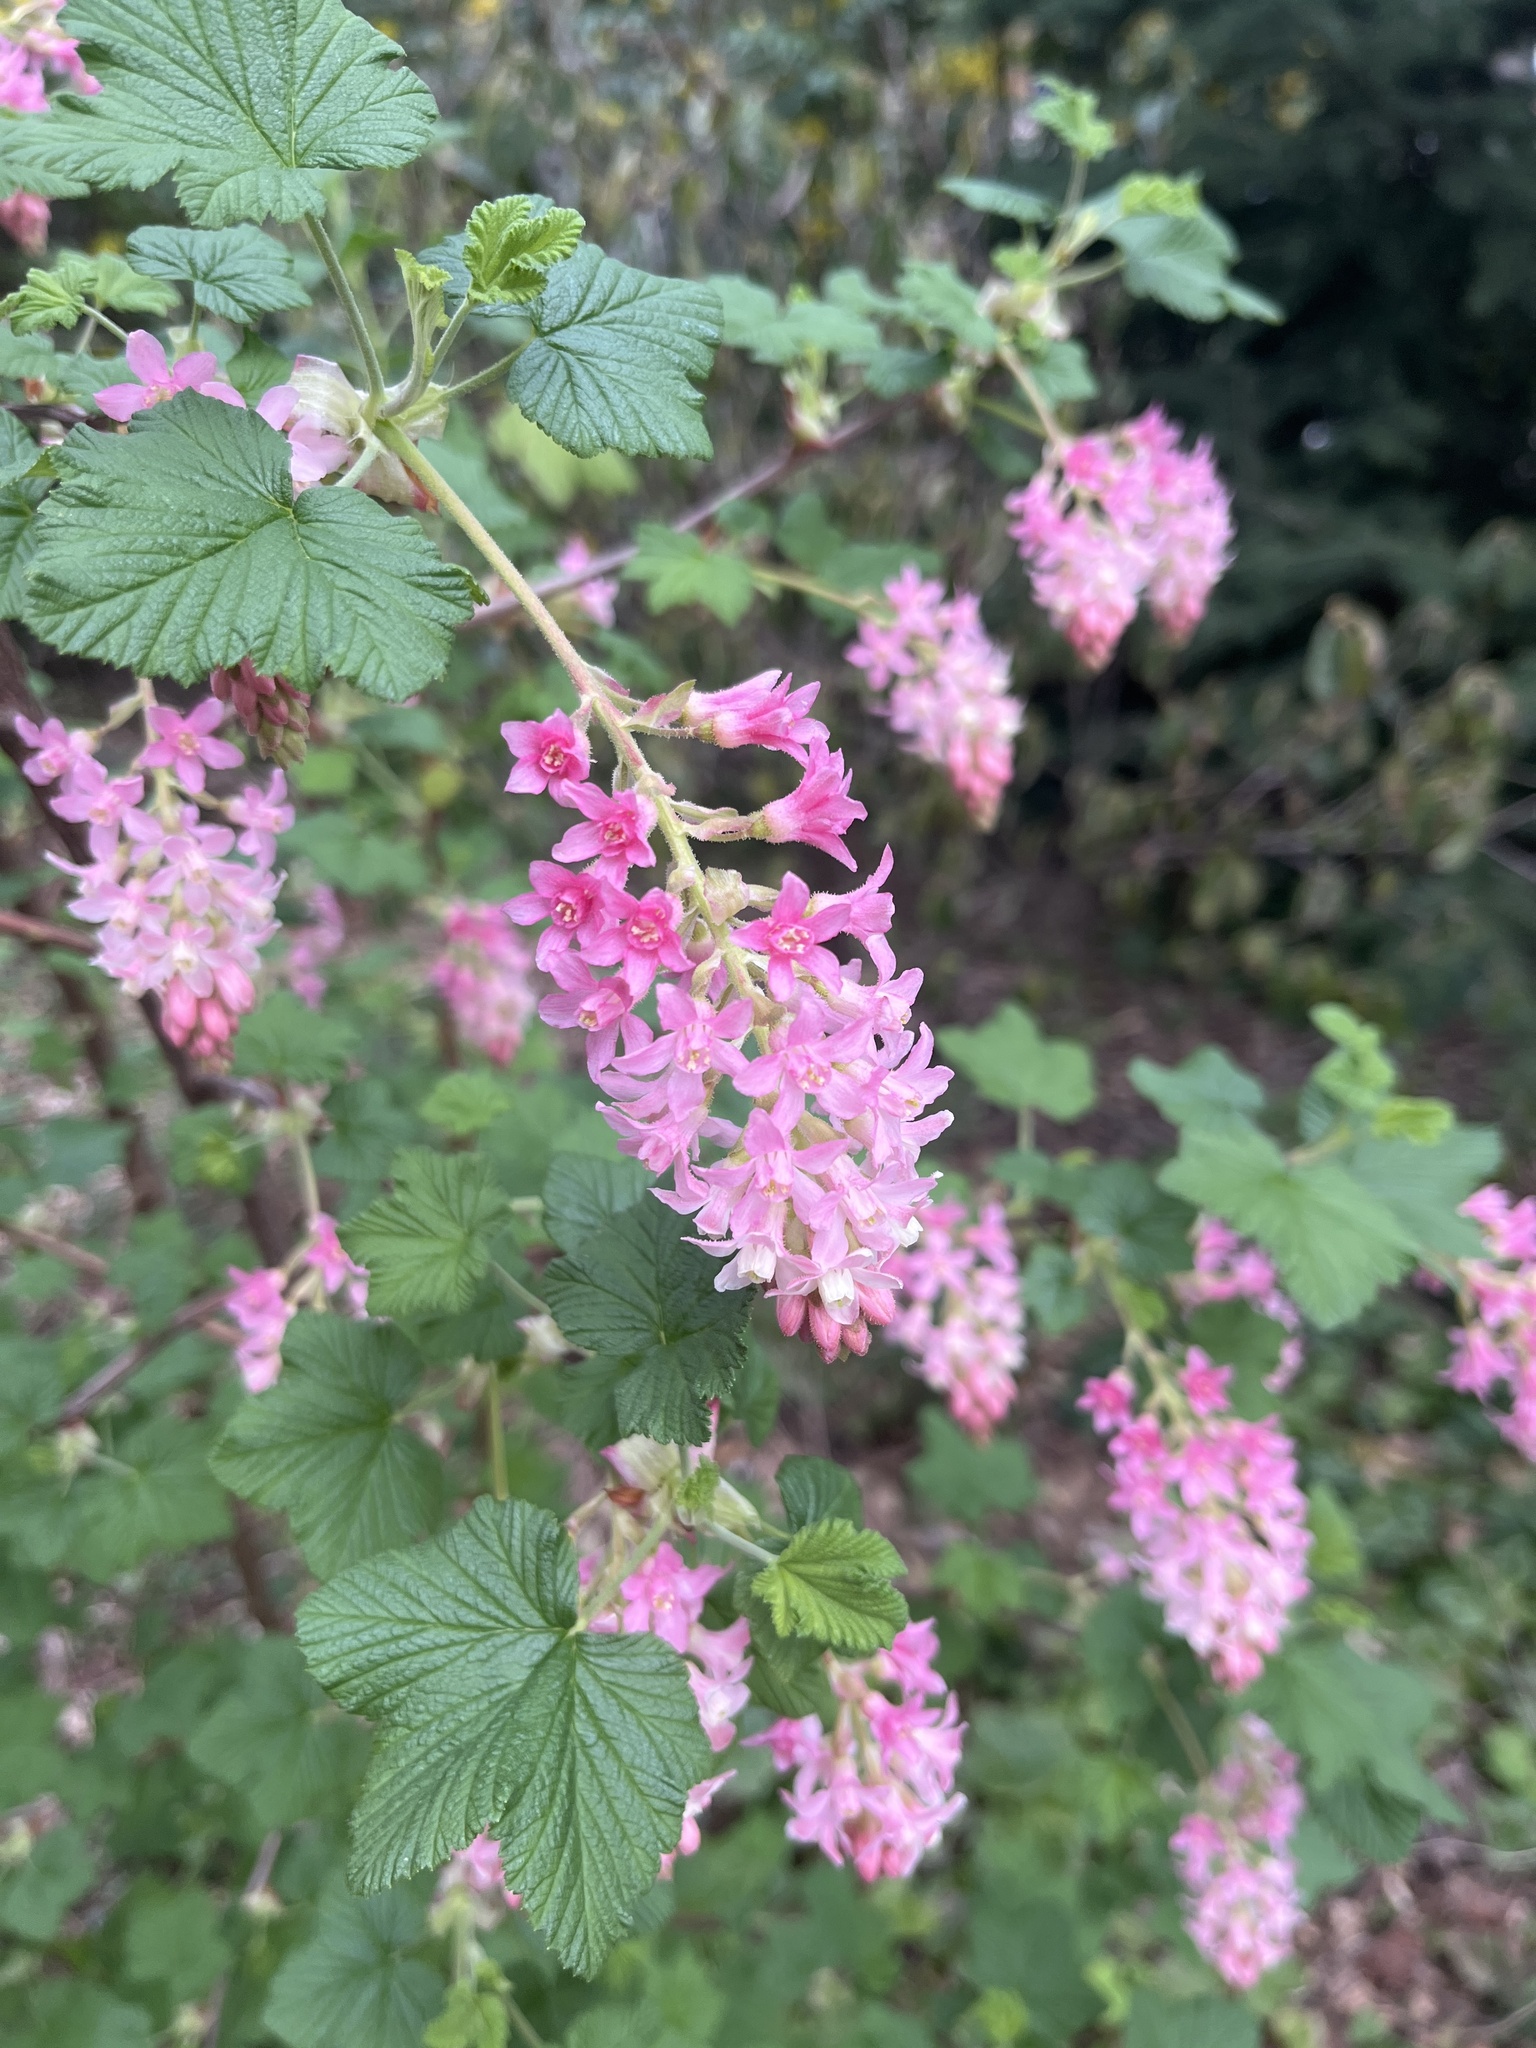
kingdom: Plantae
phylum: Tracheophyta
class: Magnoliopsida
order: Saxifragales
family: Grossulariaceae
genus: Ribes
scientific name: Ribes sanguineum
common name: Flowering currant
